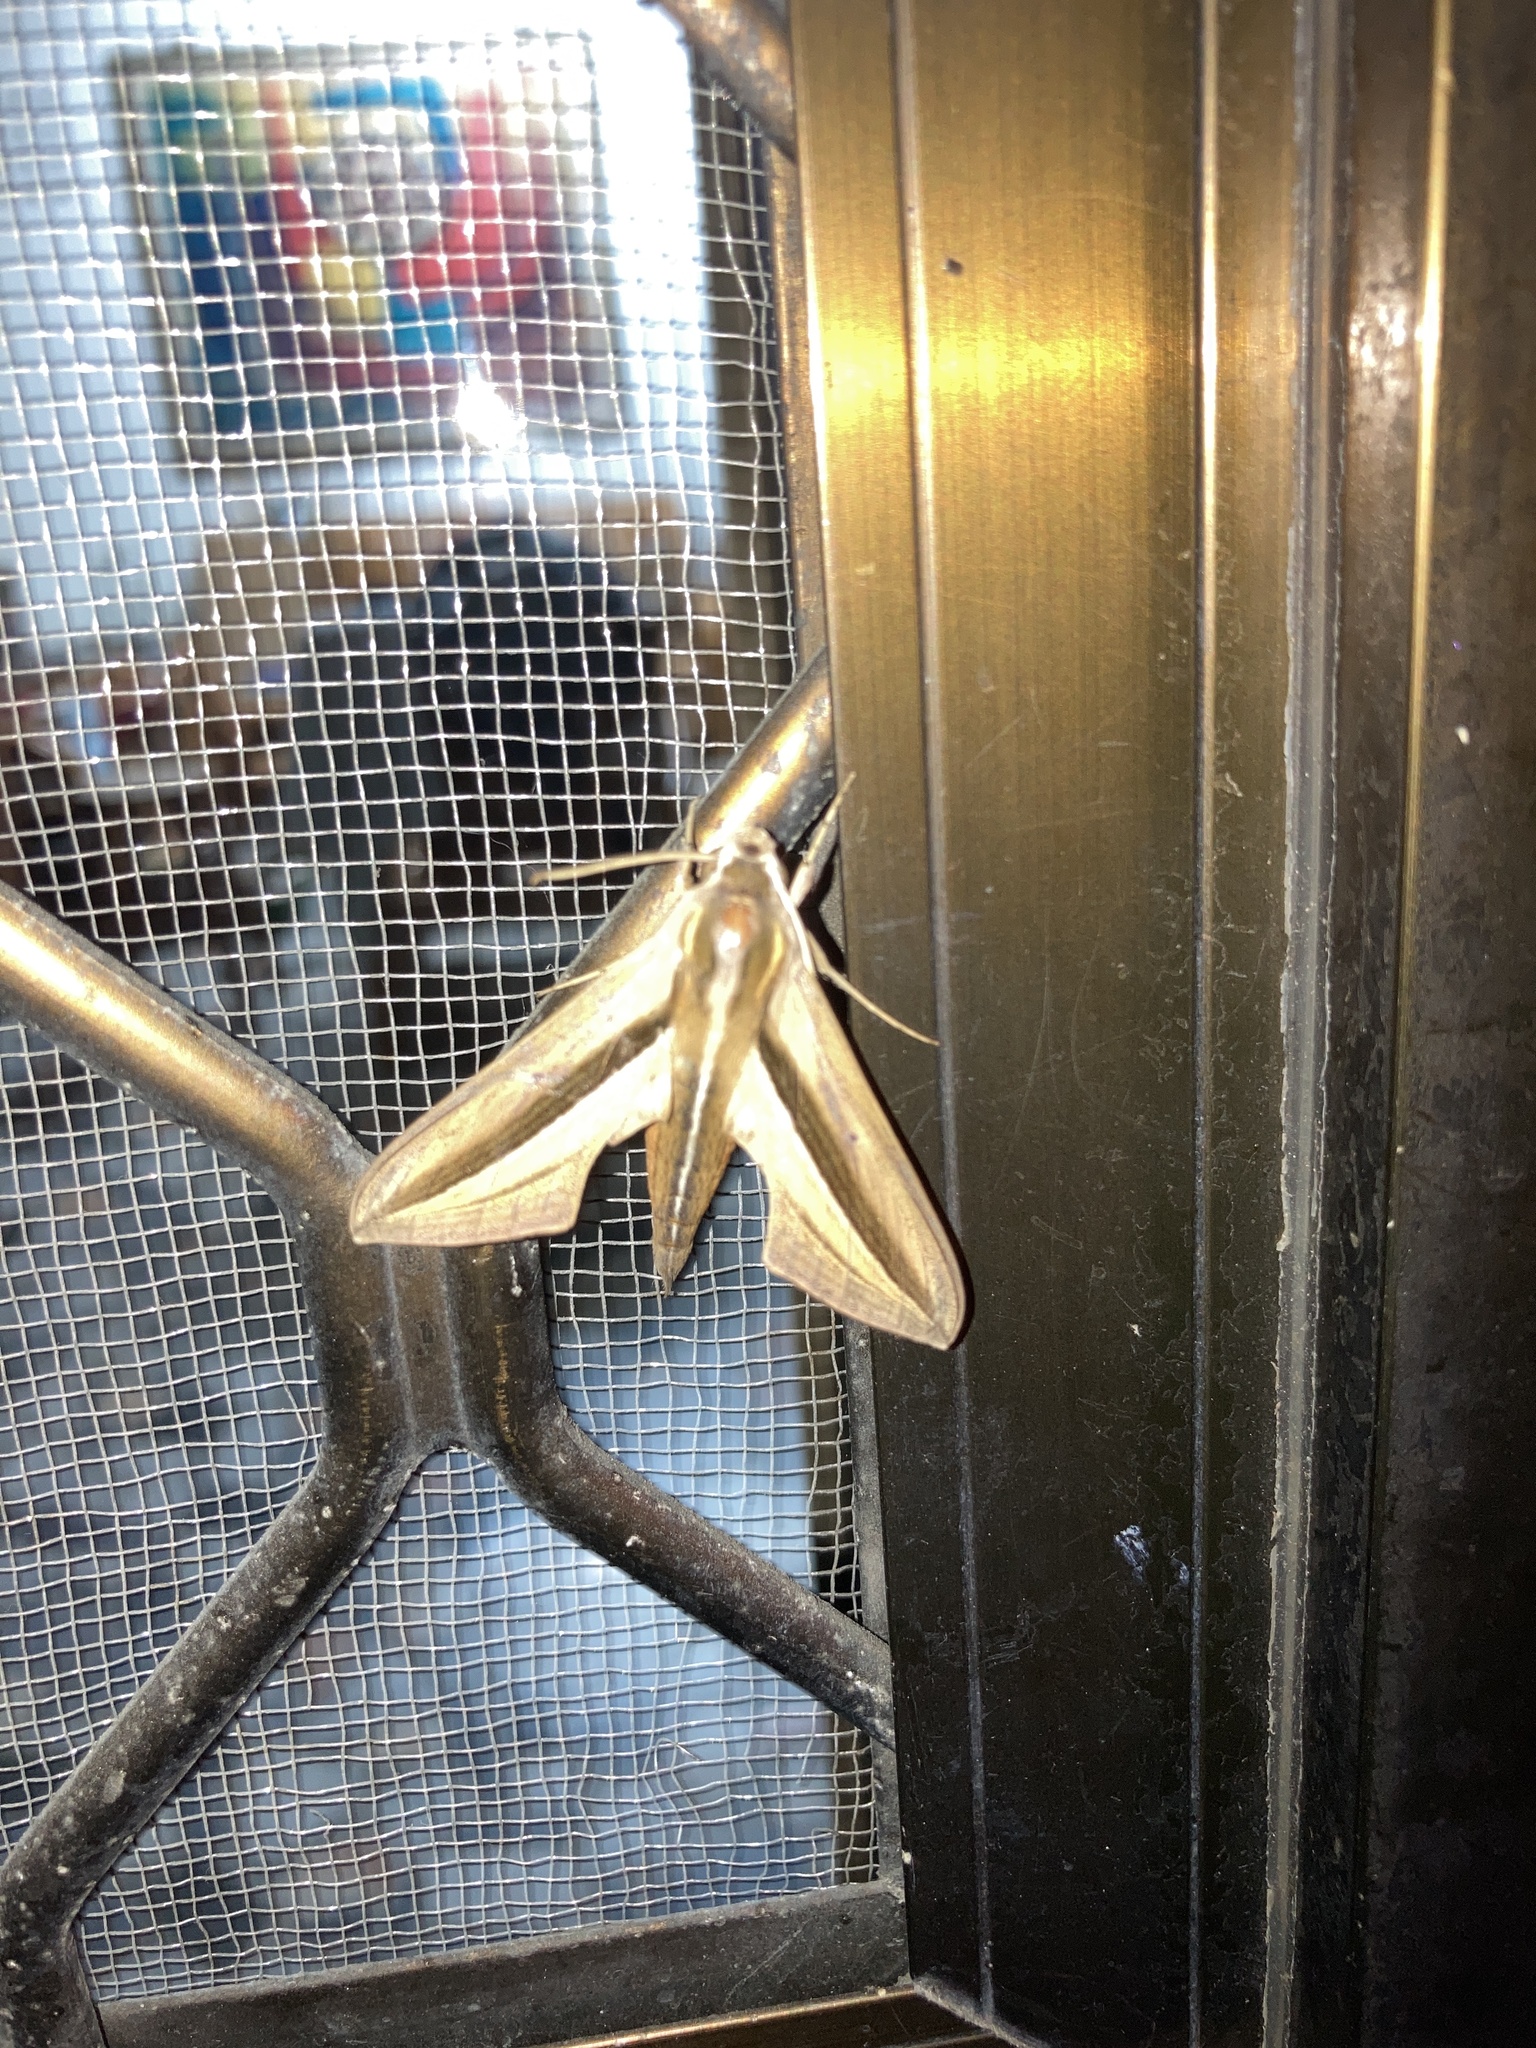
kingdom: Animalia
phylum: Arthropoda
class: Insecta
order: Lepidoptera
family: Sphingidae
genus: Theretra
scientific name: Theretra silhetensis
